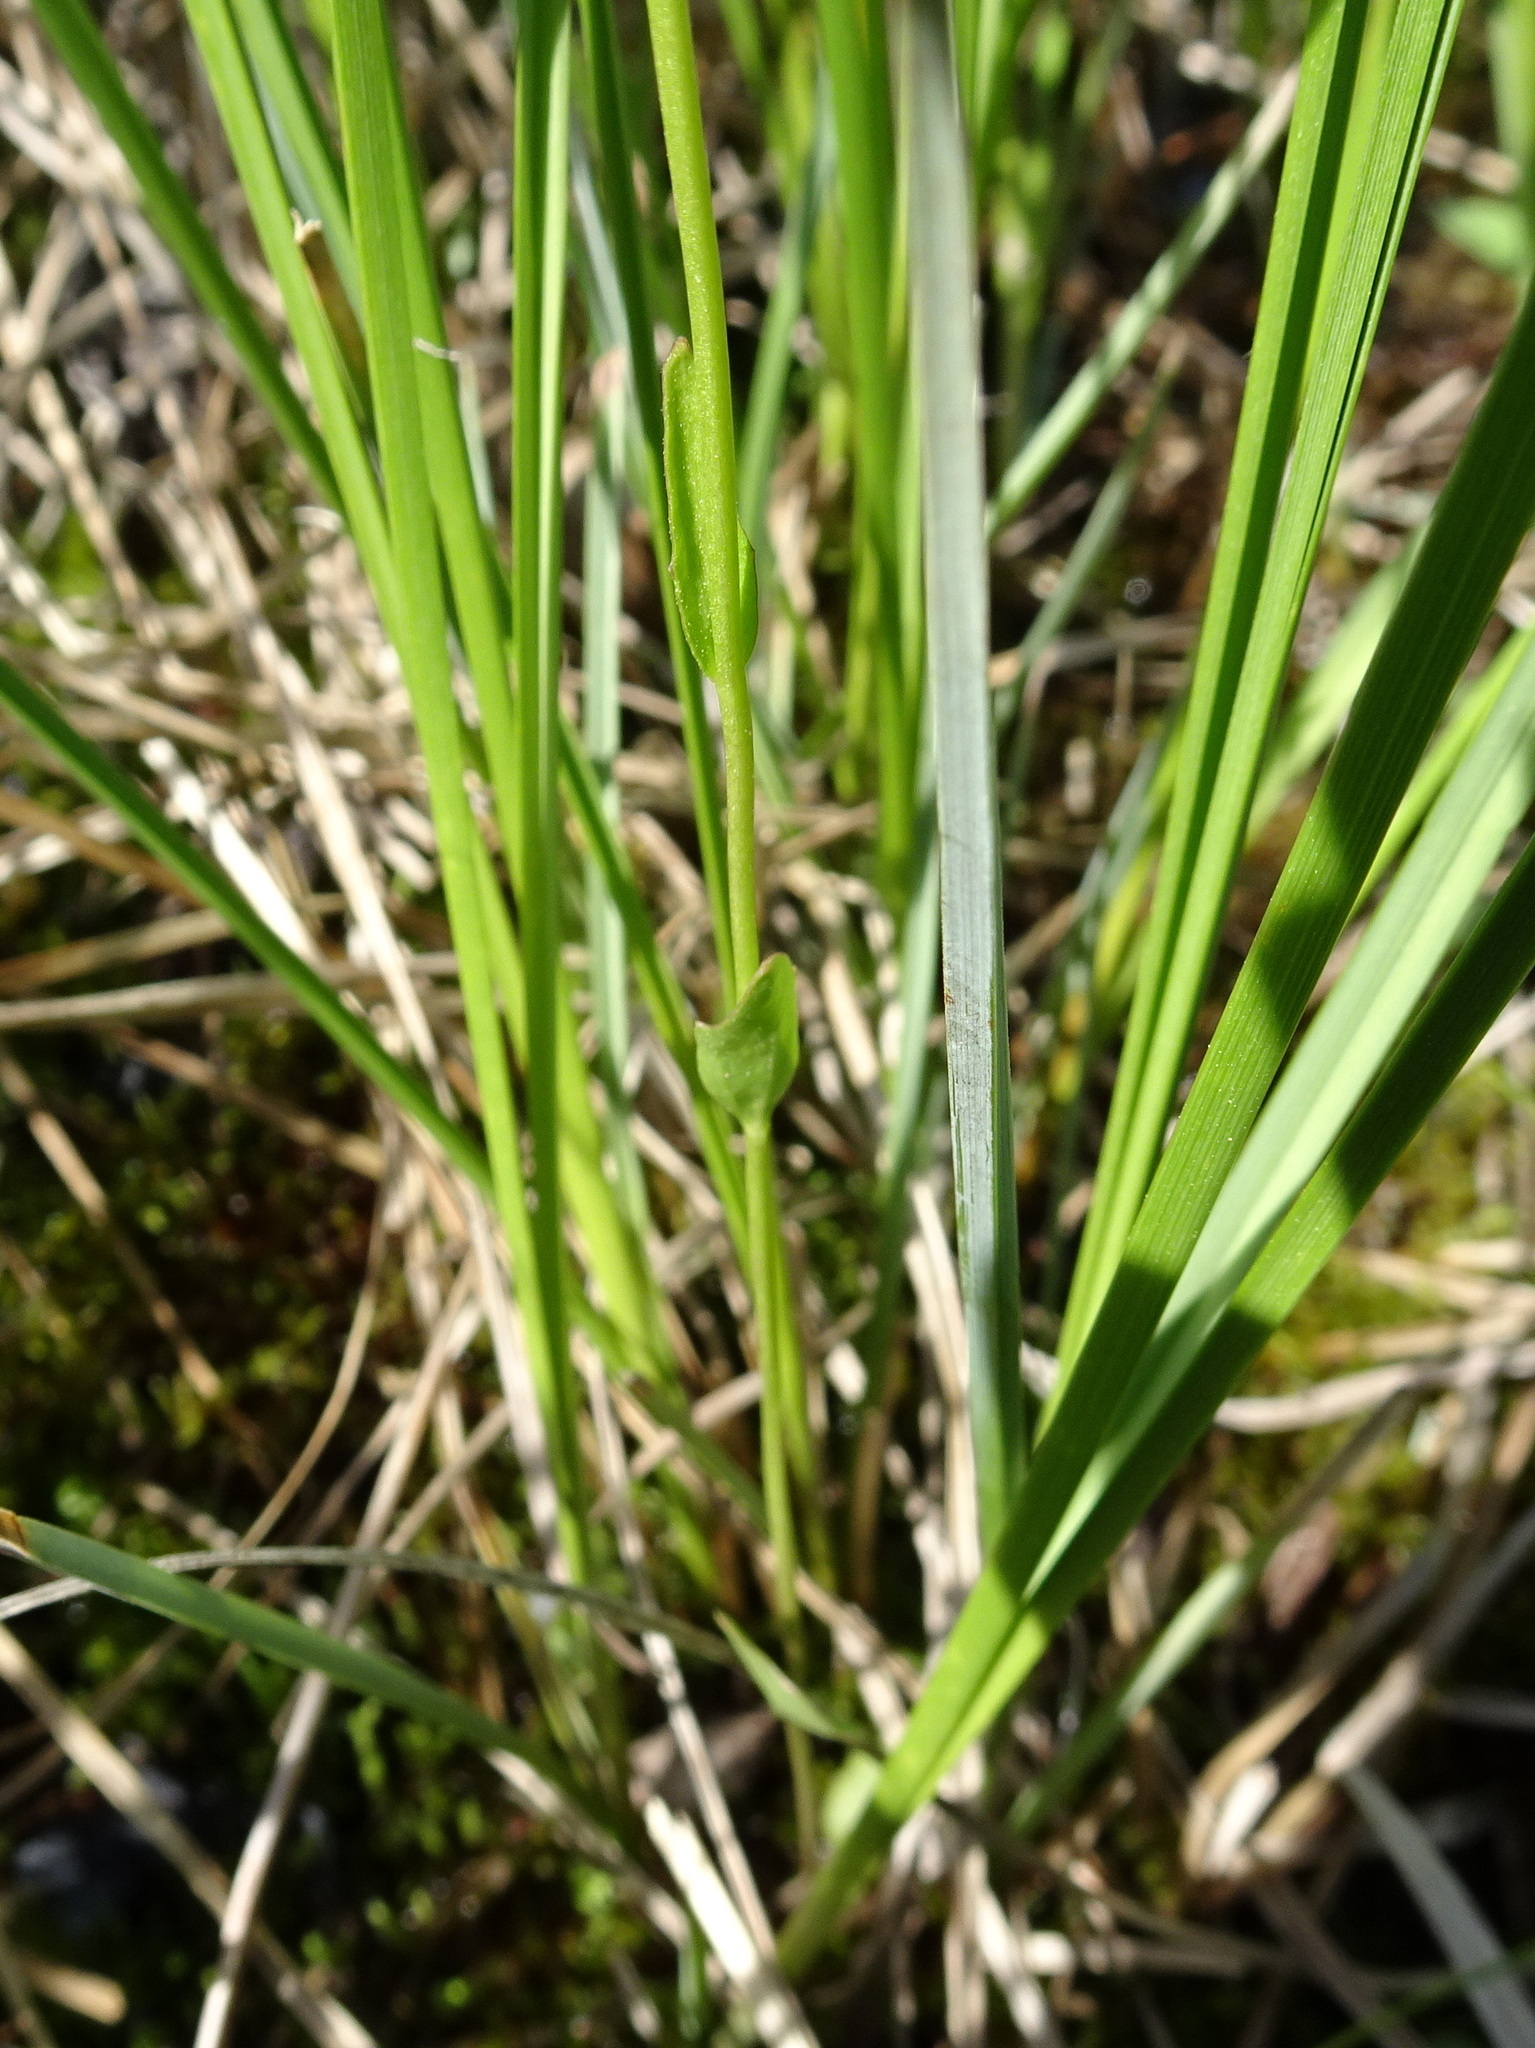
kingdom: Plantae
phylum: Tracheophyta
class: Magnoliopsida
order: Brassicales
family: Brassicaceae
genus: Cardamine
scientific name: Cardamine bulbosa
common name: Spring cress
